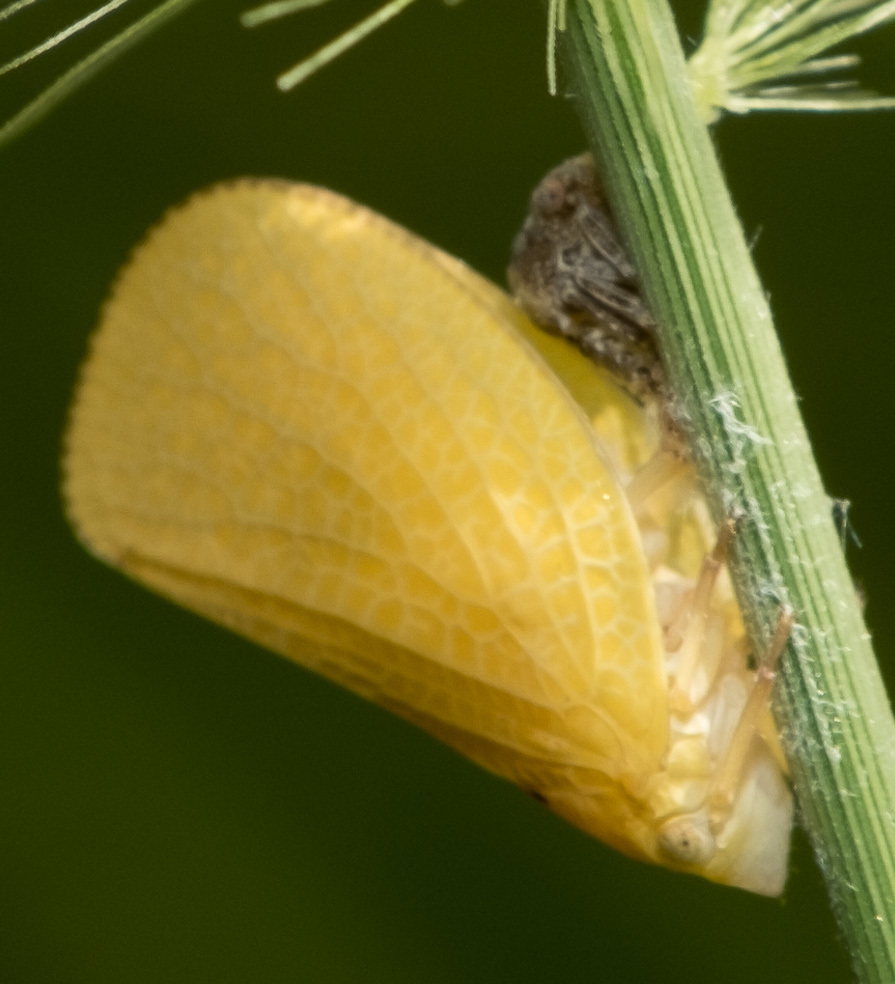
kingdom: Animalia
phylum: Arthropoda
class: Insecta
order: Hemiptera
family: Acanaloniidae
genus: Acanalonia
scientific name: Acanalonia conica
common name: Green cone-headed planthopper
